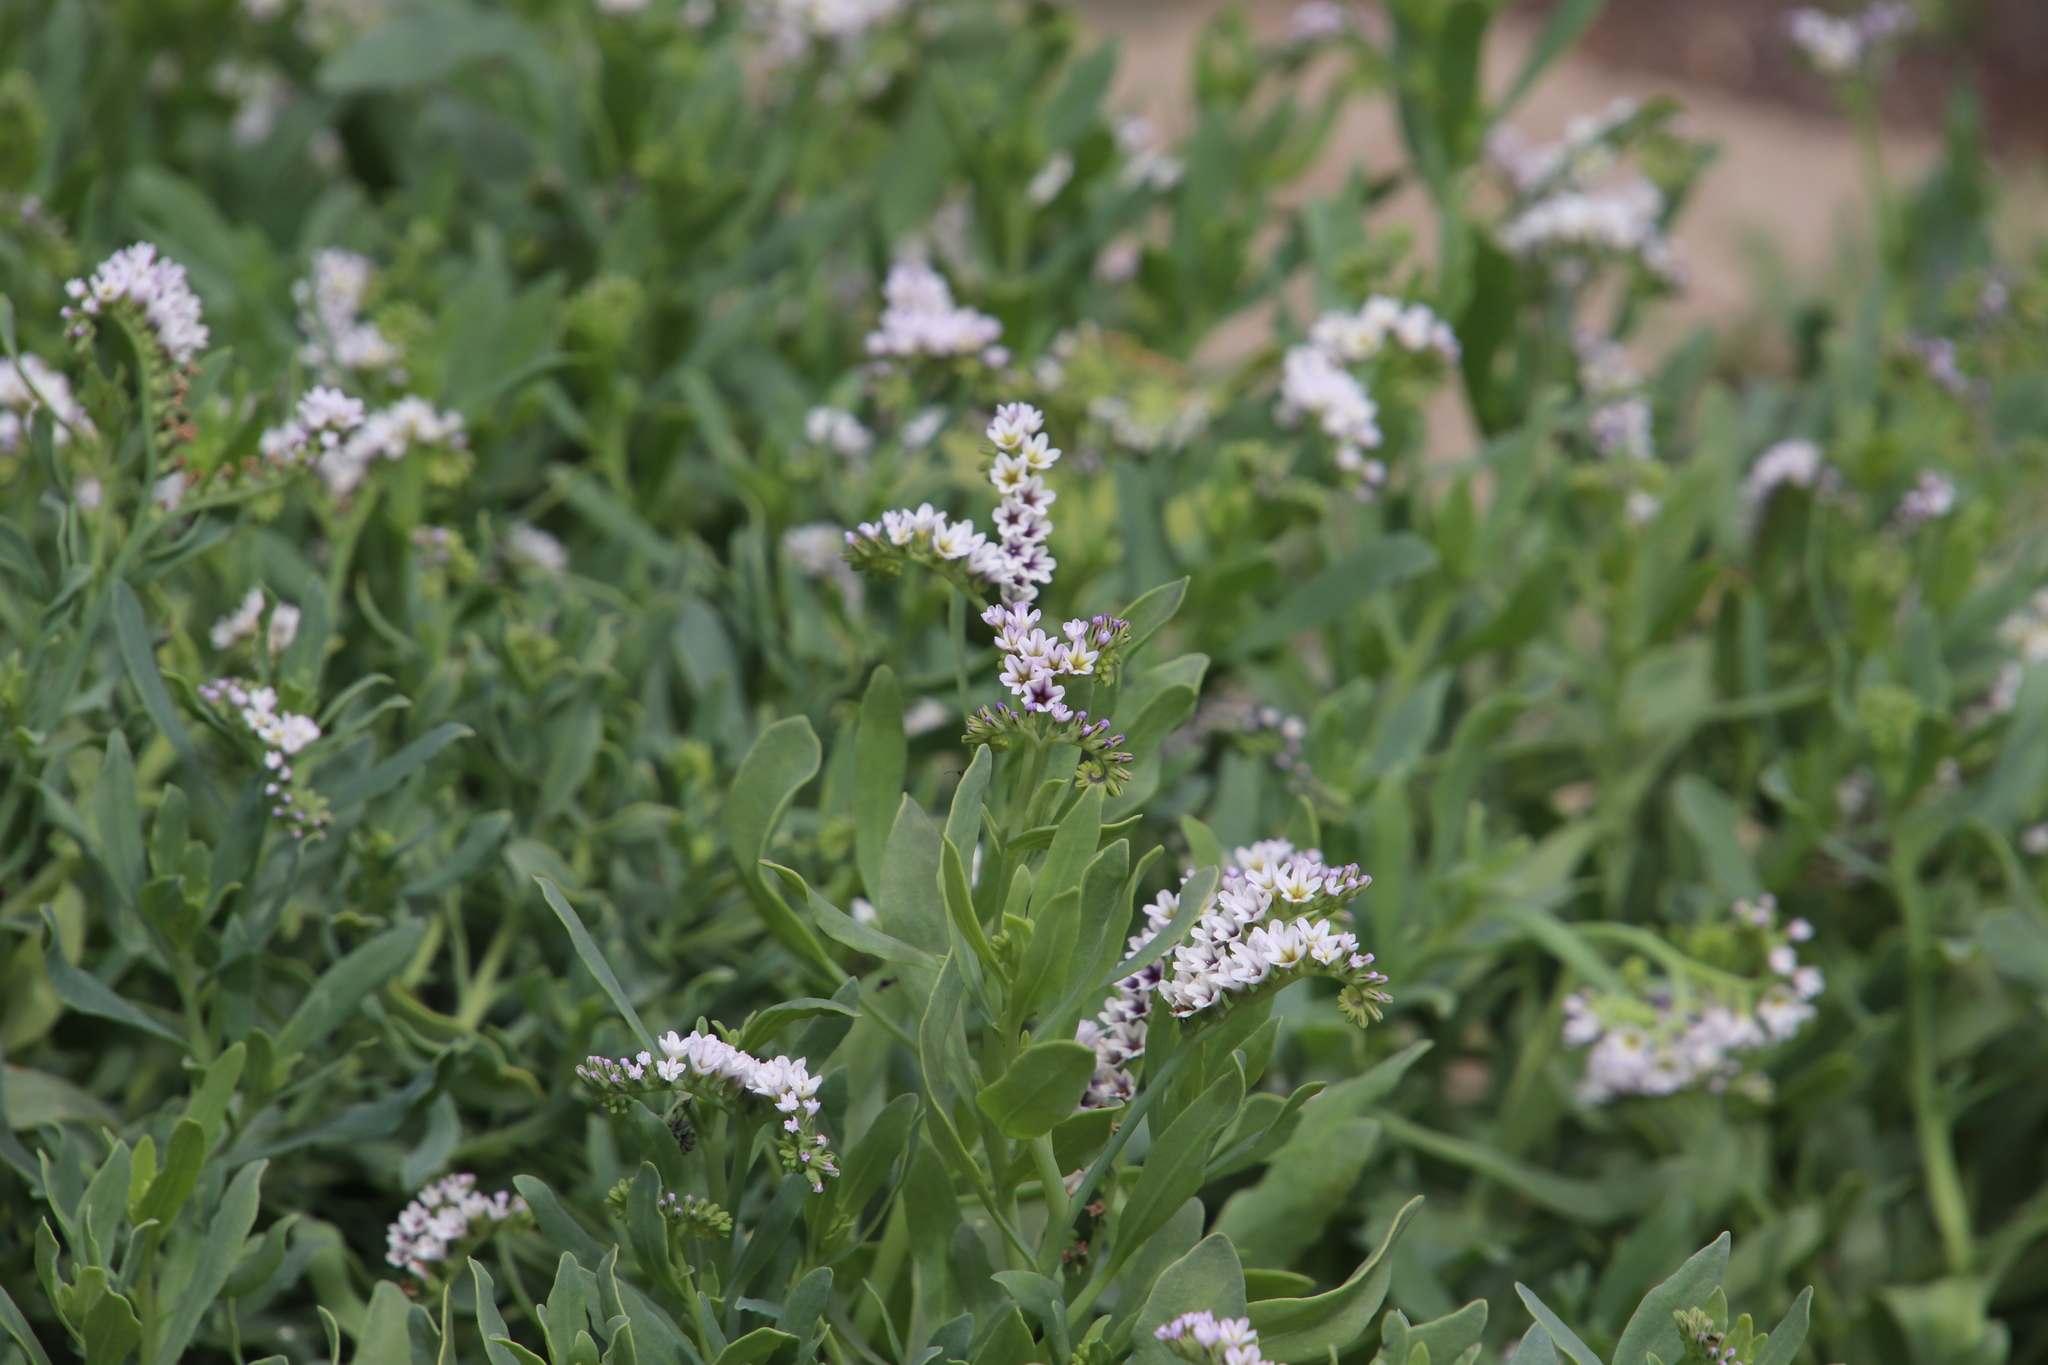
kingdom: Plantae
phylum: Tracheophyta
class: Magnoliopsida
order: Boraginales
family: Heliotropiaceae
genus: Heliotropium
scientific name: Heliotropium curassavicum
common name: Seaside heliotrope
